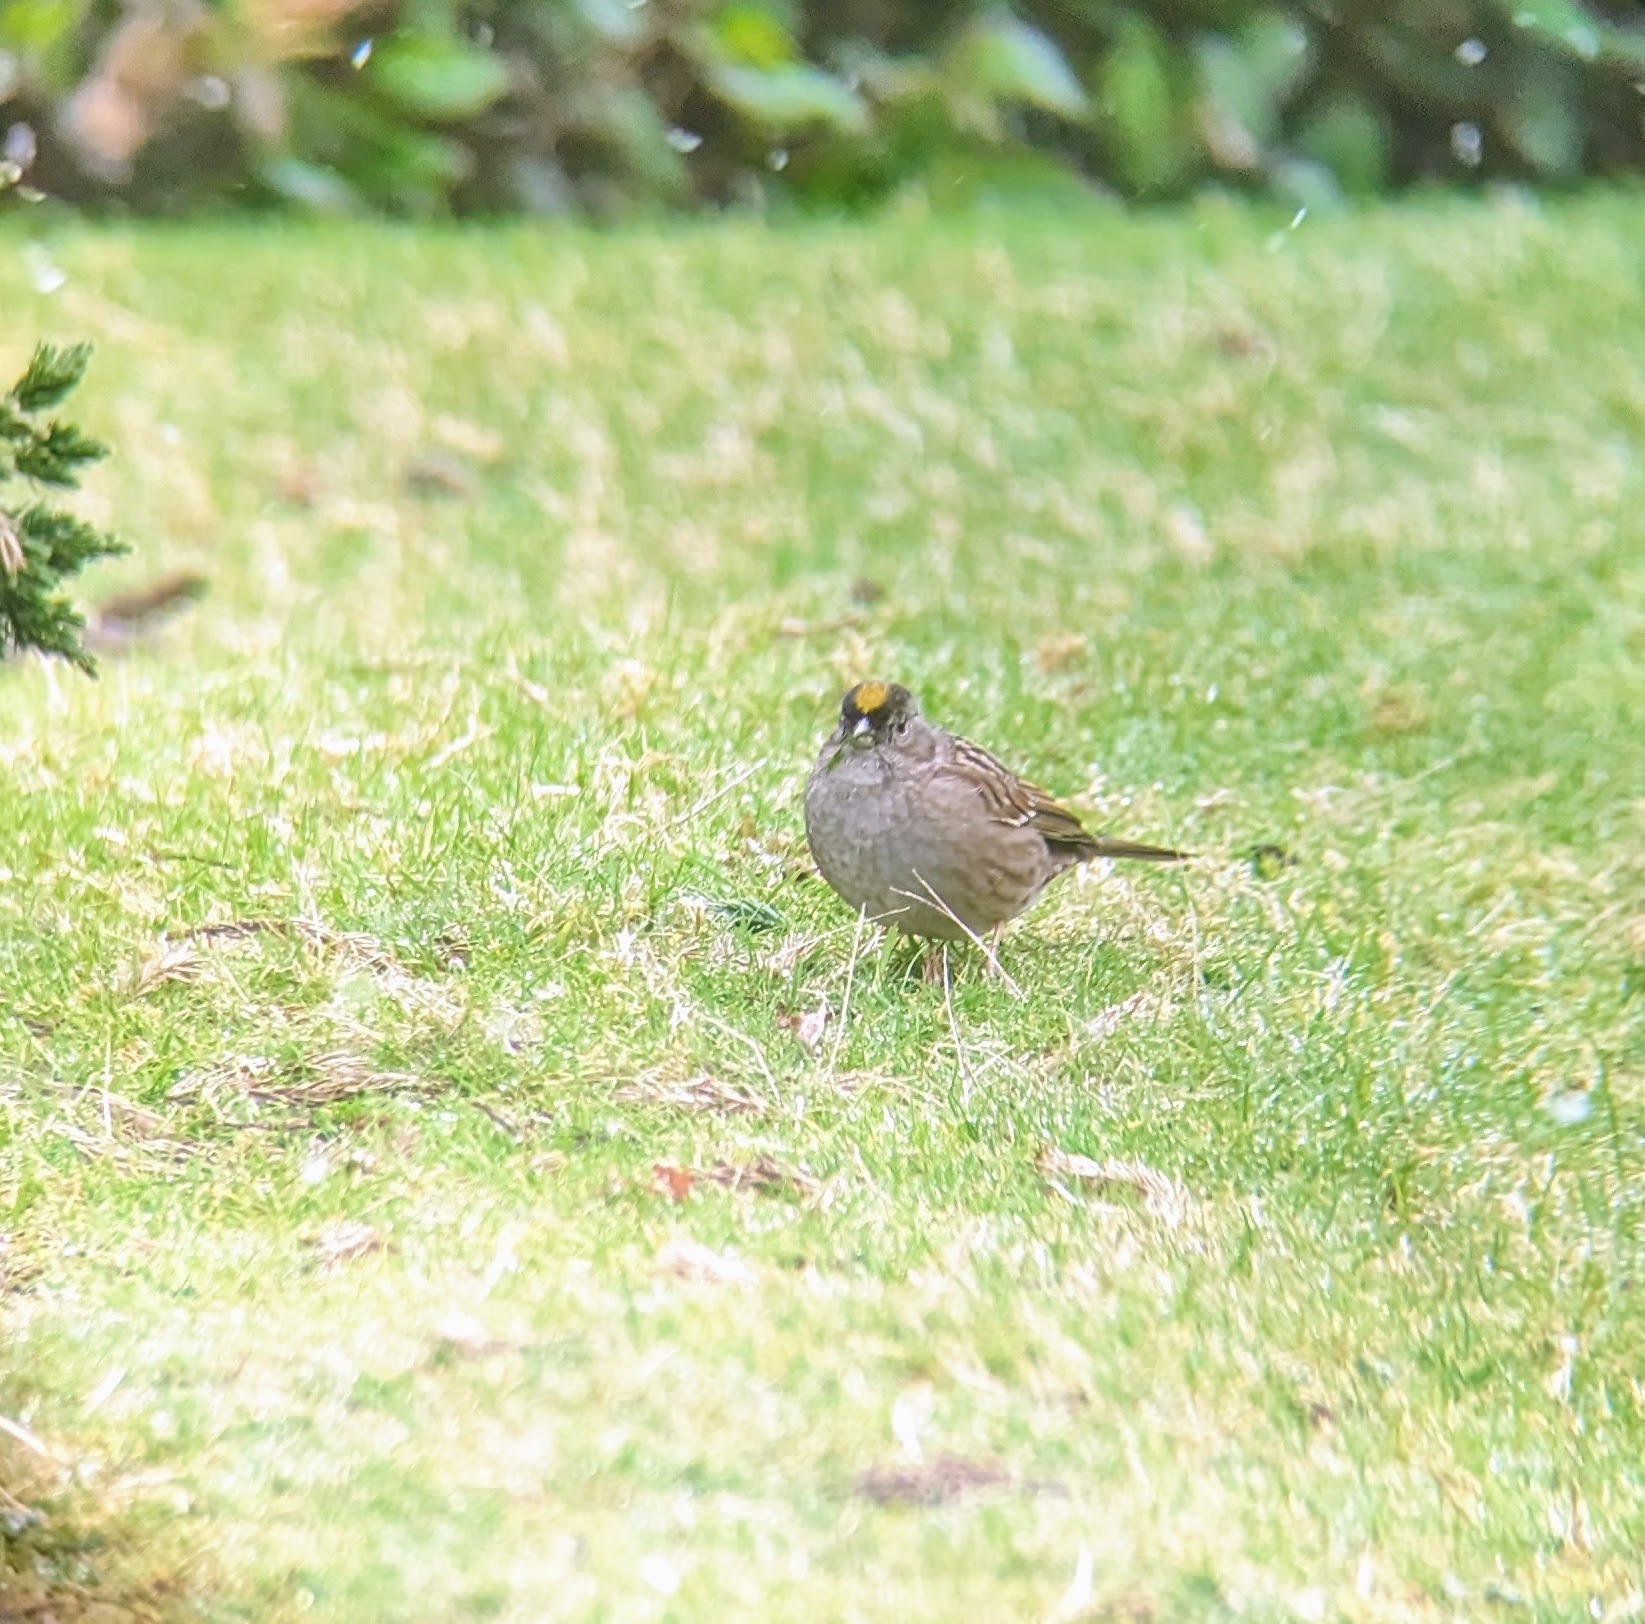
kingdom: Animalia
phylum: Chordata
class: Aves
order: Passeriformes
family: Passerellidae
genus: Zonotrichia
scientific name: Zonotrichia atricapilla
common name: Golden-crowned sparrow
